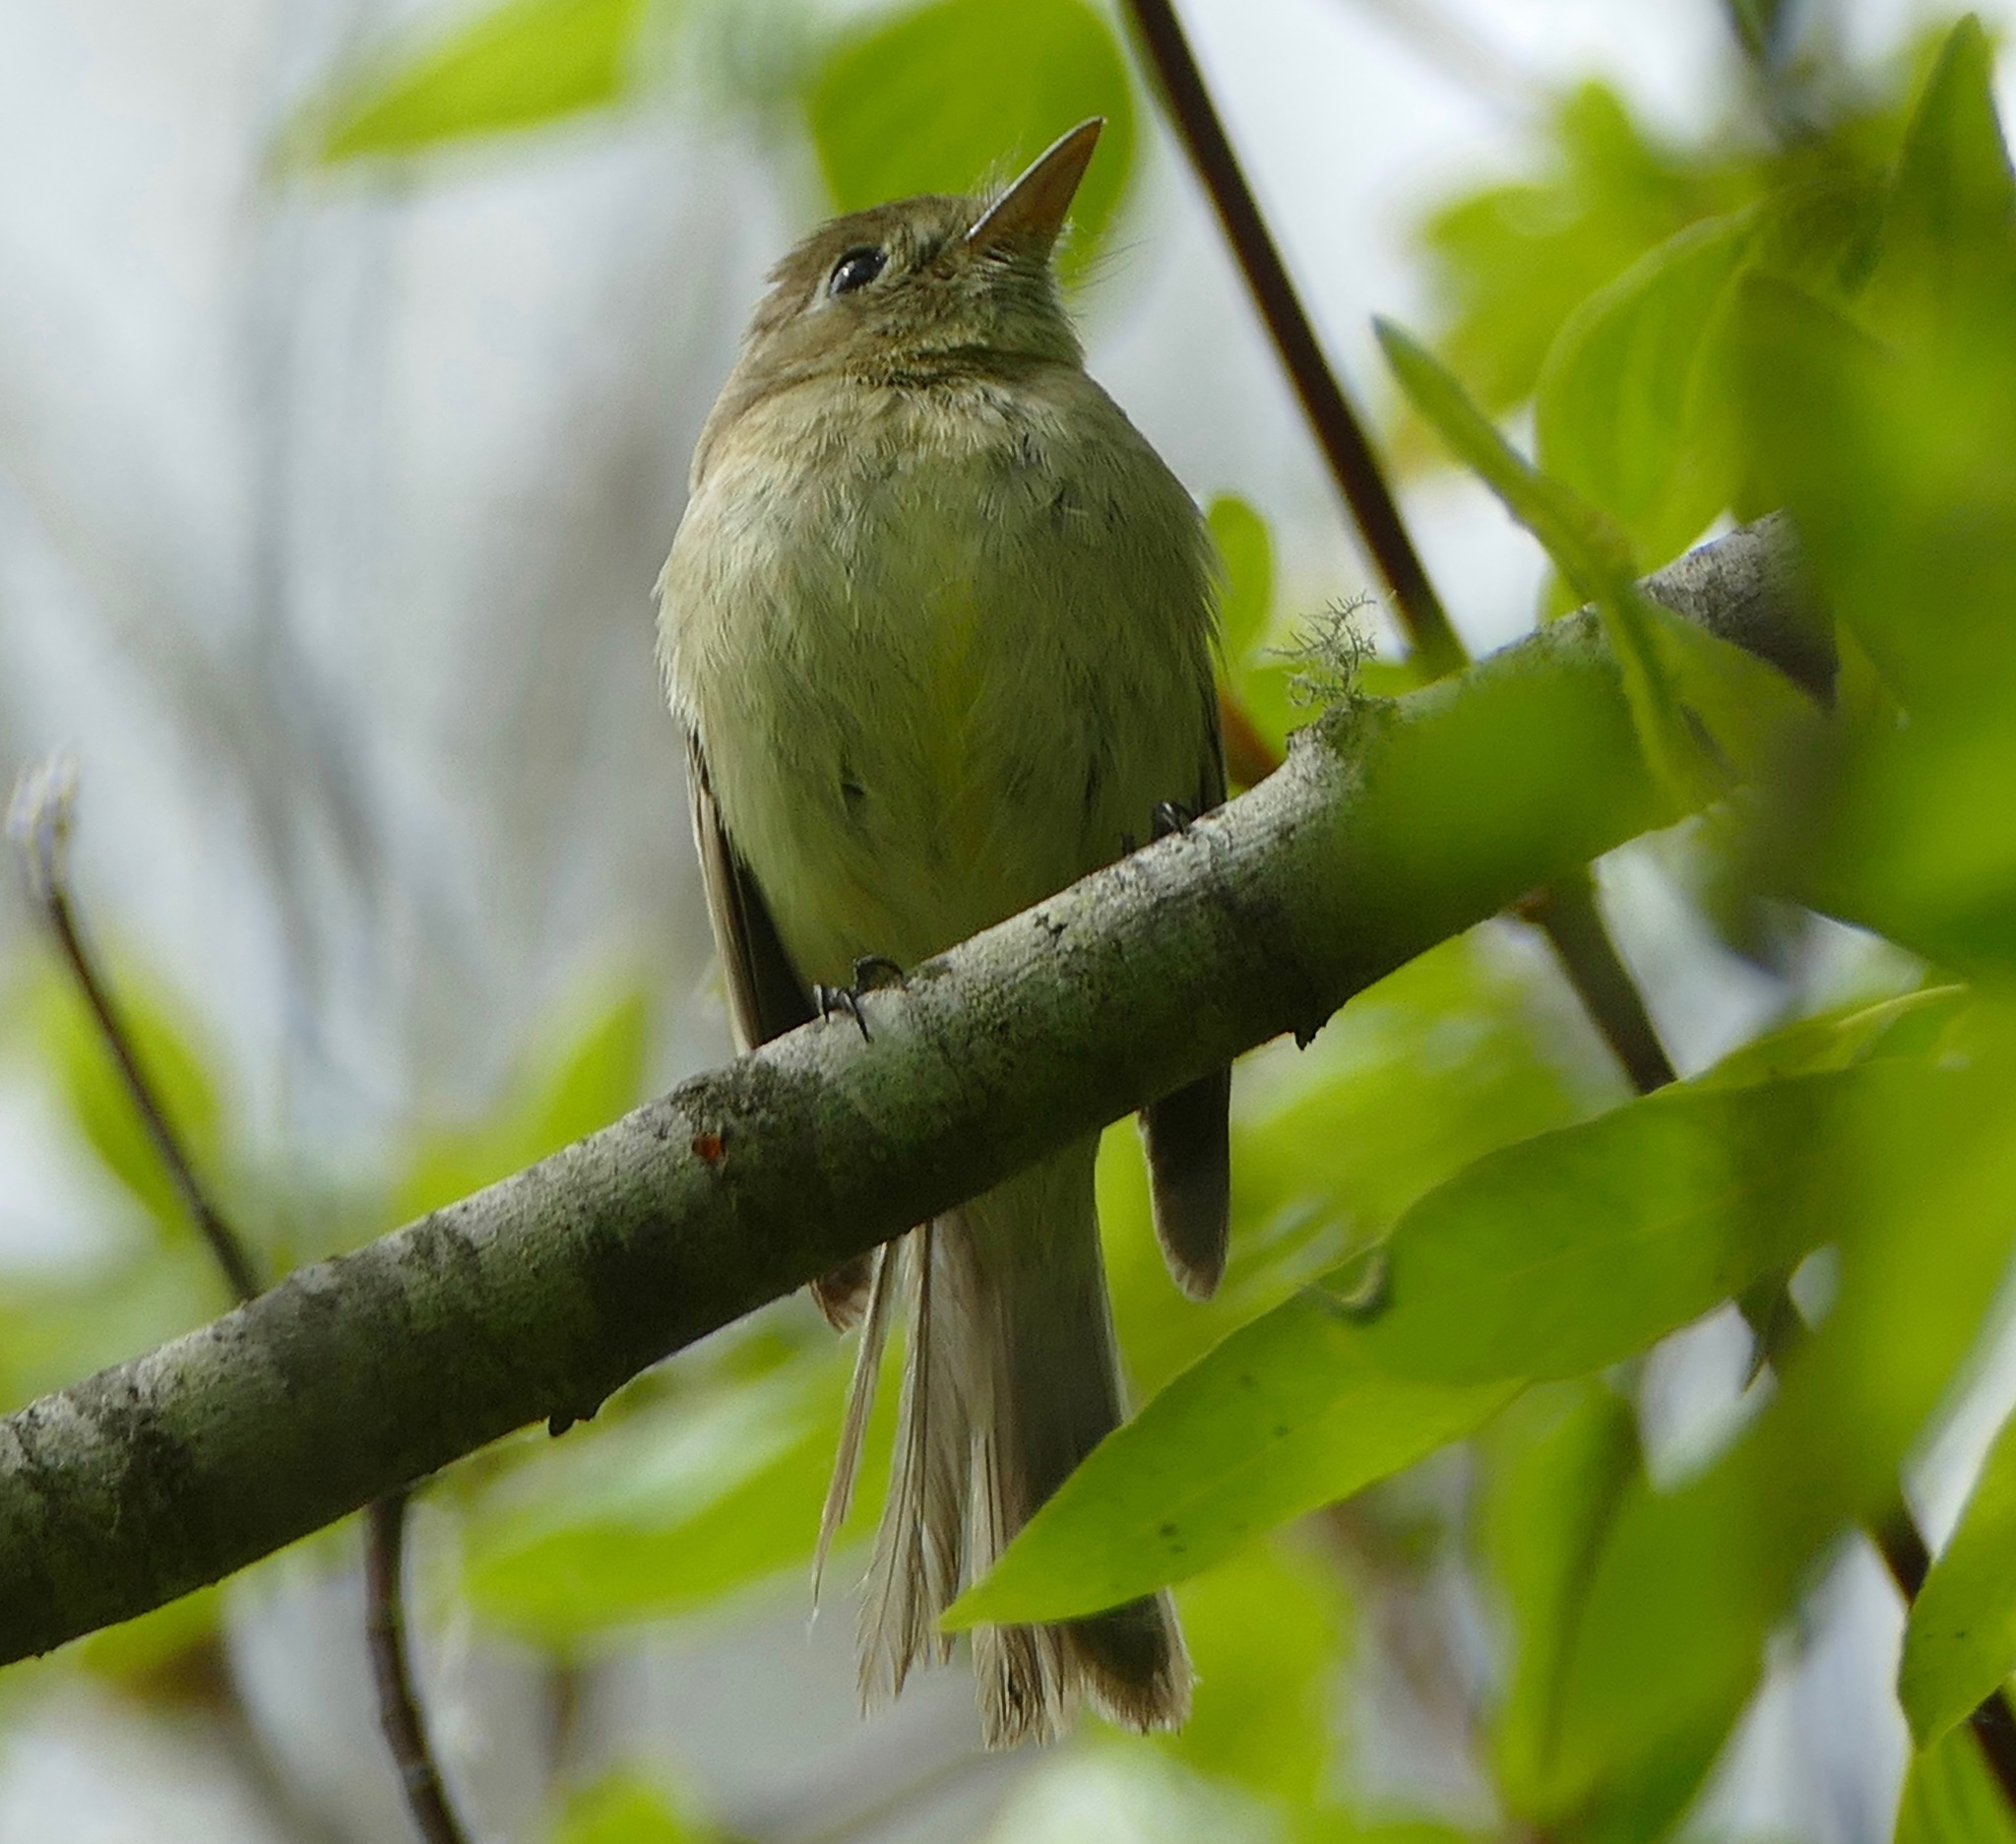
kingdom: Animalia
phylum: Chordata
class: Aves
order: Passeriformes
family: Tyrannidae
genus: Empidonax
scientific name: Empidonax difficilis
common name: Pacific-slope flycatcher
